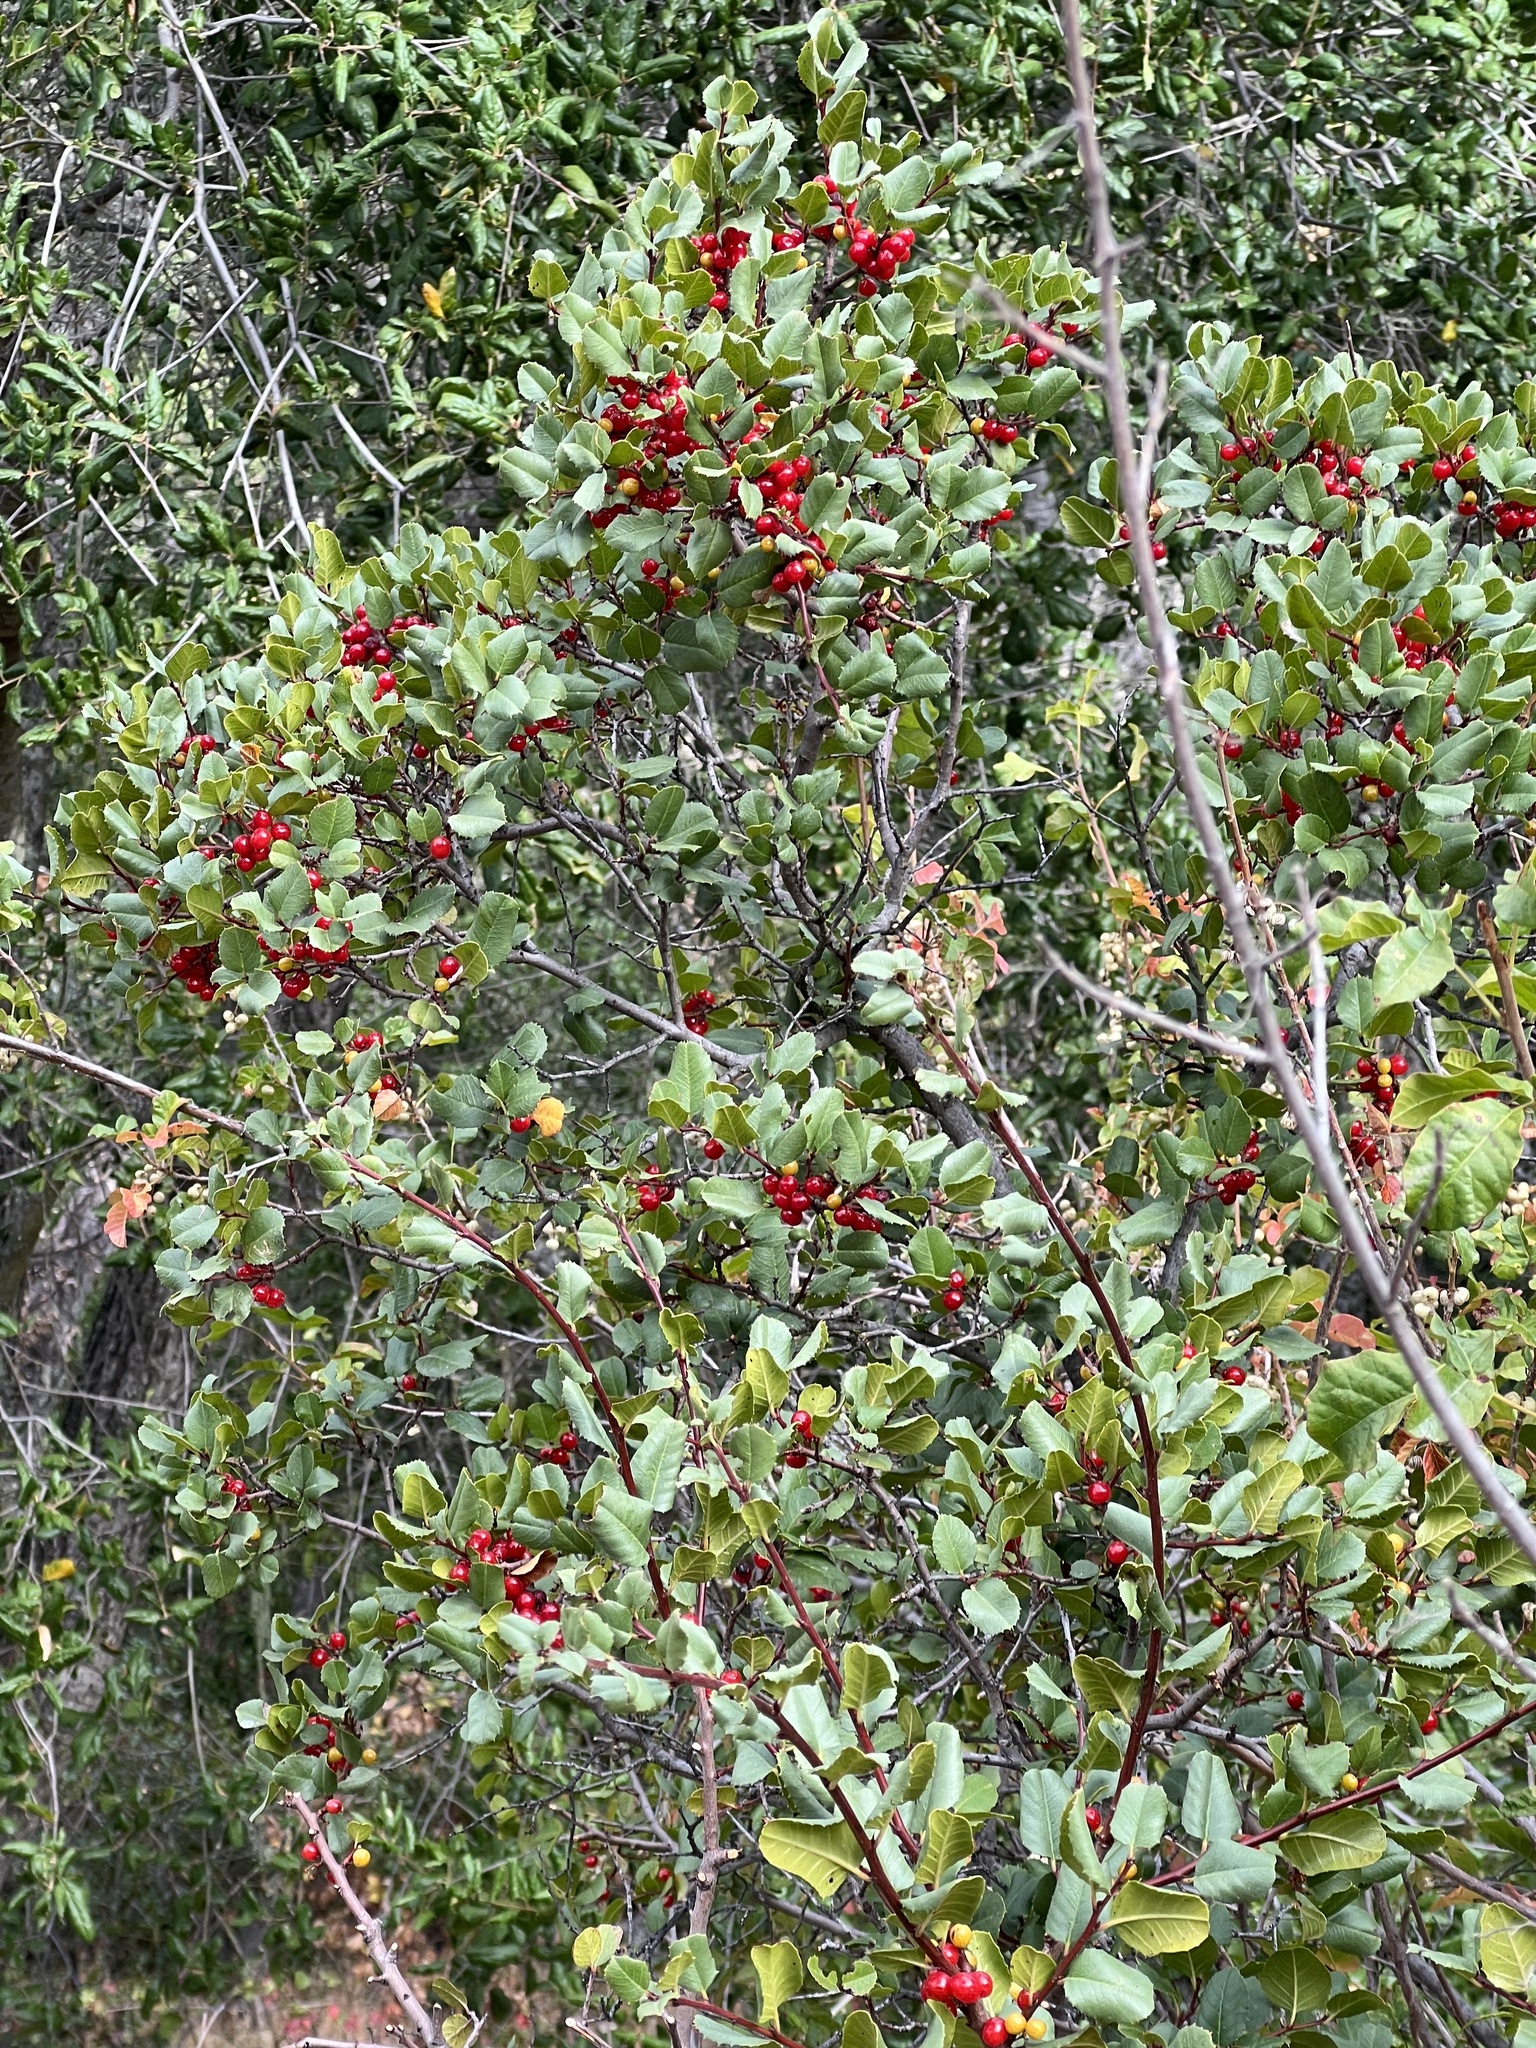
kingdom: Plantae
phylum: Tracheophyta
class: Magnoliopsida
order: Rosales
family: Rhamnaceae
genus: Endotropis
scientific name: Endotropis crocea
